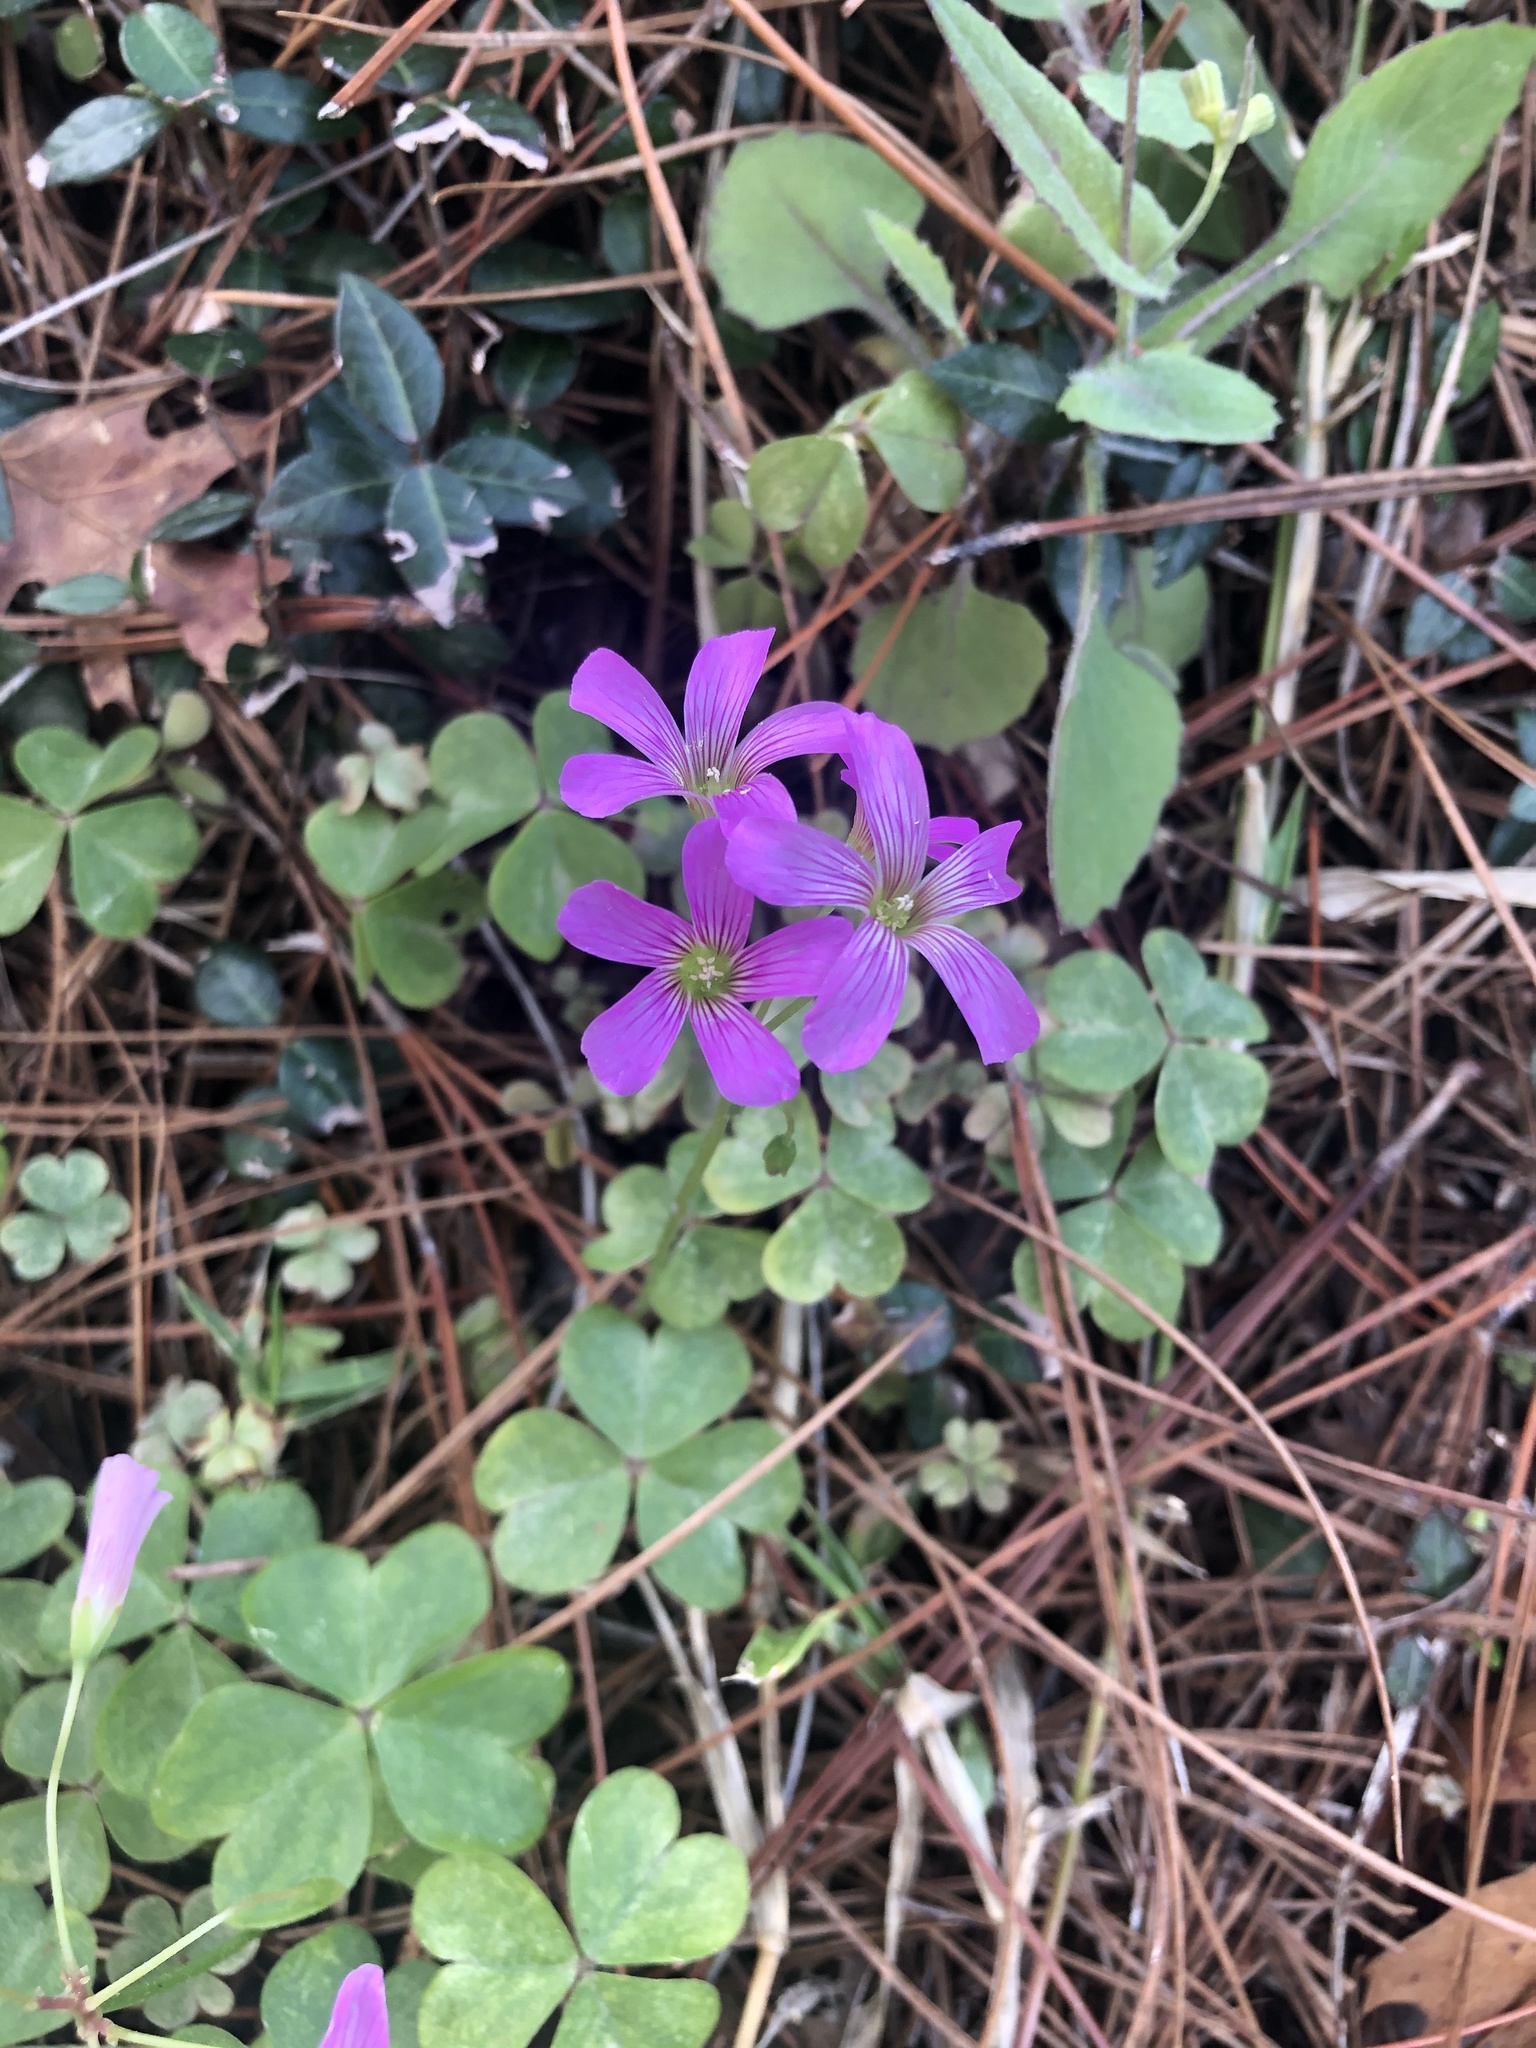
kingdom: Plantae
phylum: Tracheophyta
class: Magnoliopsida
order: Oxalidales
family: Oxalidaceae
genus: Oxalis
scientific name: Oxalis debilis
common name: Large-flowered pink-sorrel
